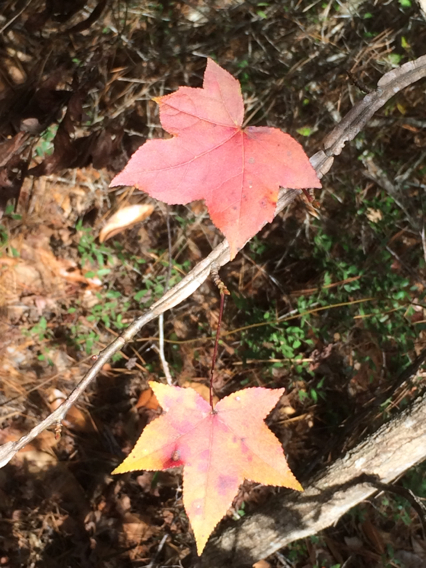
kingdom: Plantae
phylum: Tracheophyta
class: Magnoliopsida
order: Saxifragales
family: Altingiaceae
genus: Liquidambar
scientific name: Liquidambar styraciflua
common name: Sweet gum
